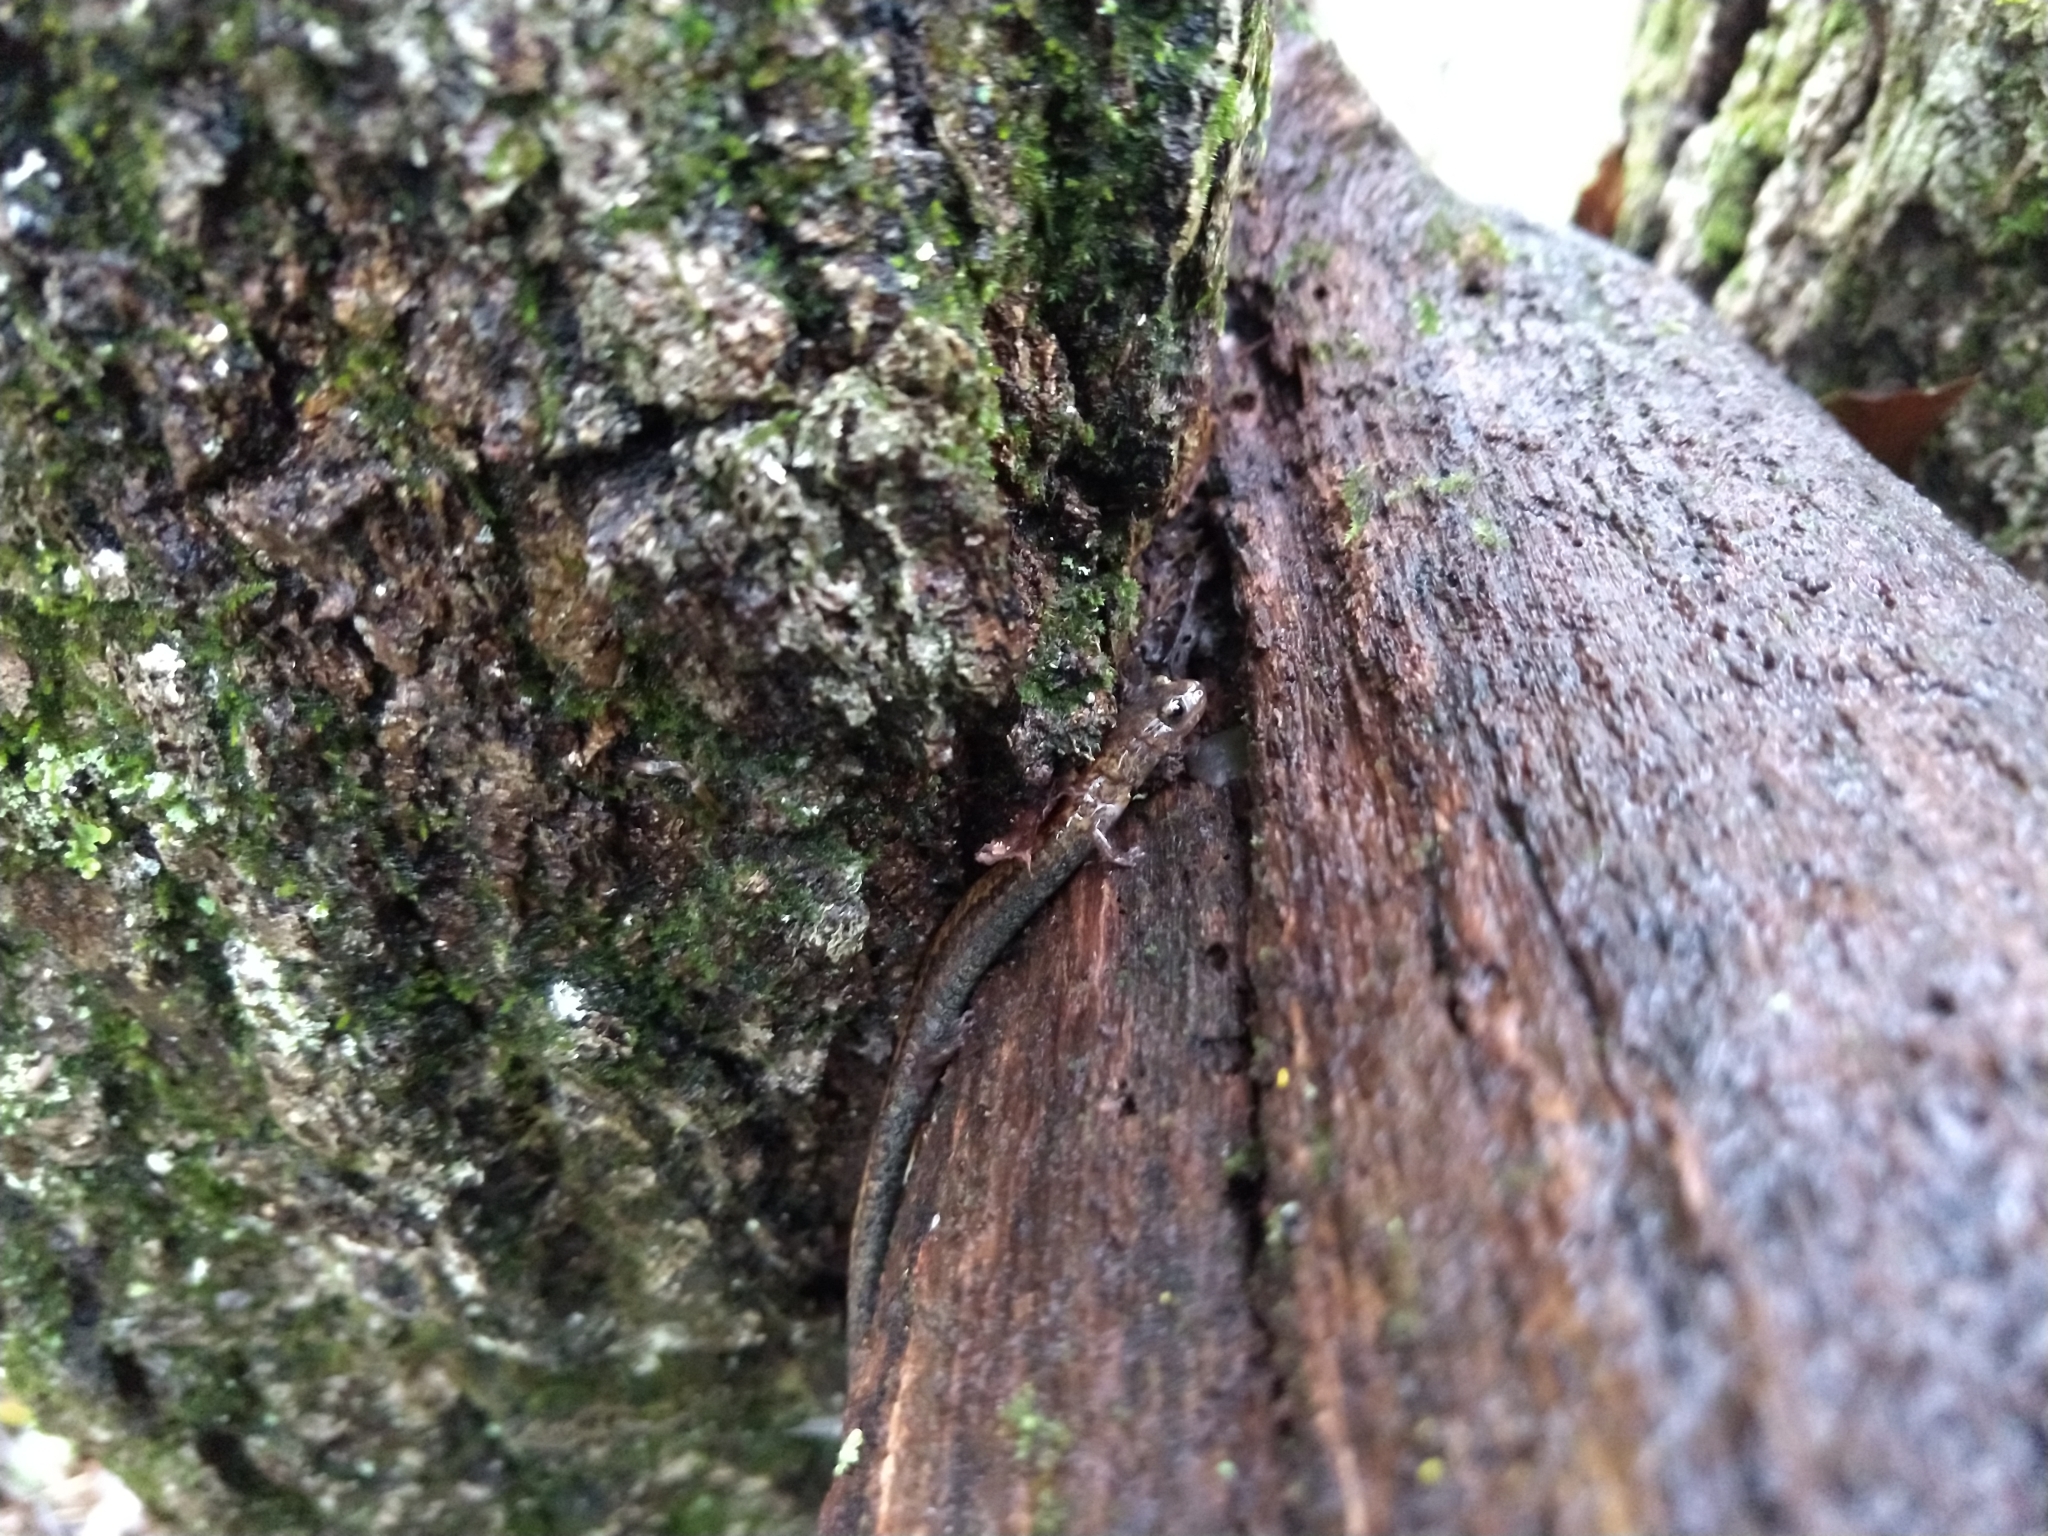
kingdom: Animalia
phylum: Chordata
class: Amphibia
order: Caudata
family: Plethodontidae
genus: Plethodon
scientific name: Plethodon cinereus
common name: Redback salamander
